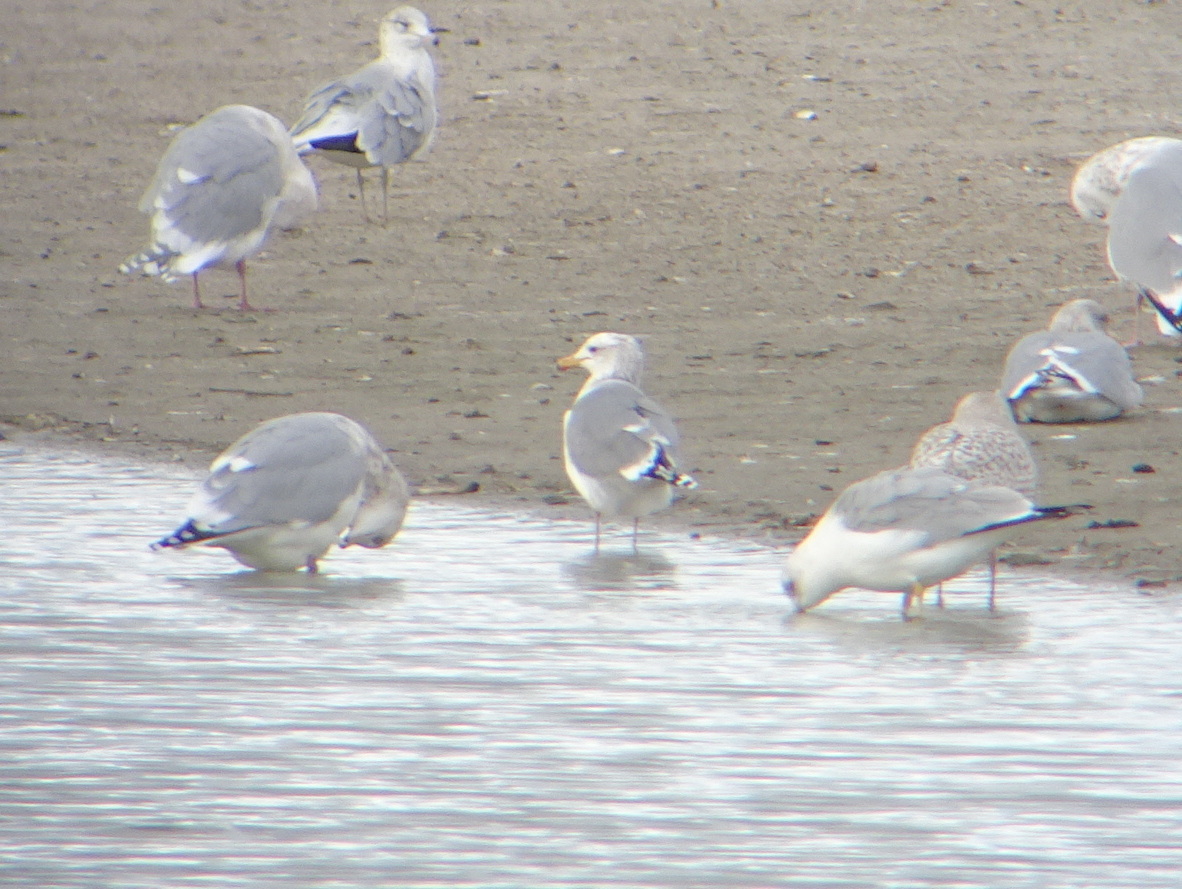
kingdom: Animalia
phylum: Chordata
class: Aves
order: Charadriiformes
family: Laridae
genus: Larus
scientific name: Larus californicus
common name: California gull
